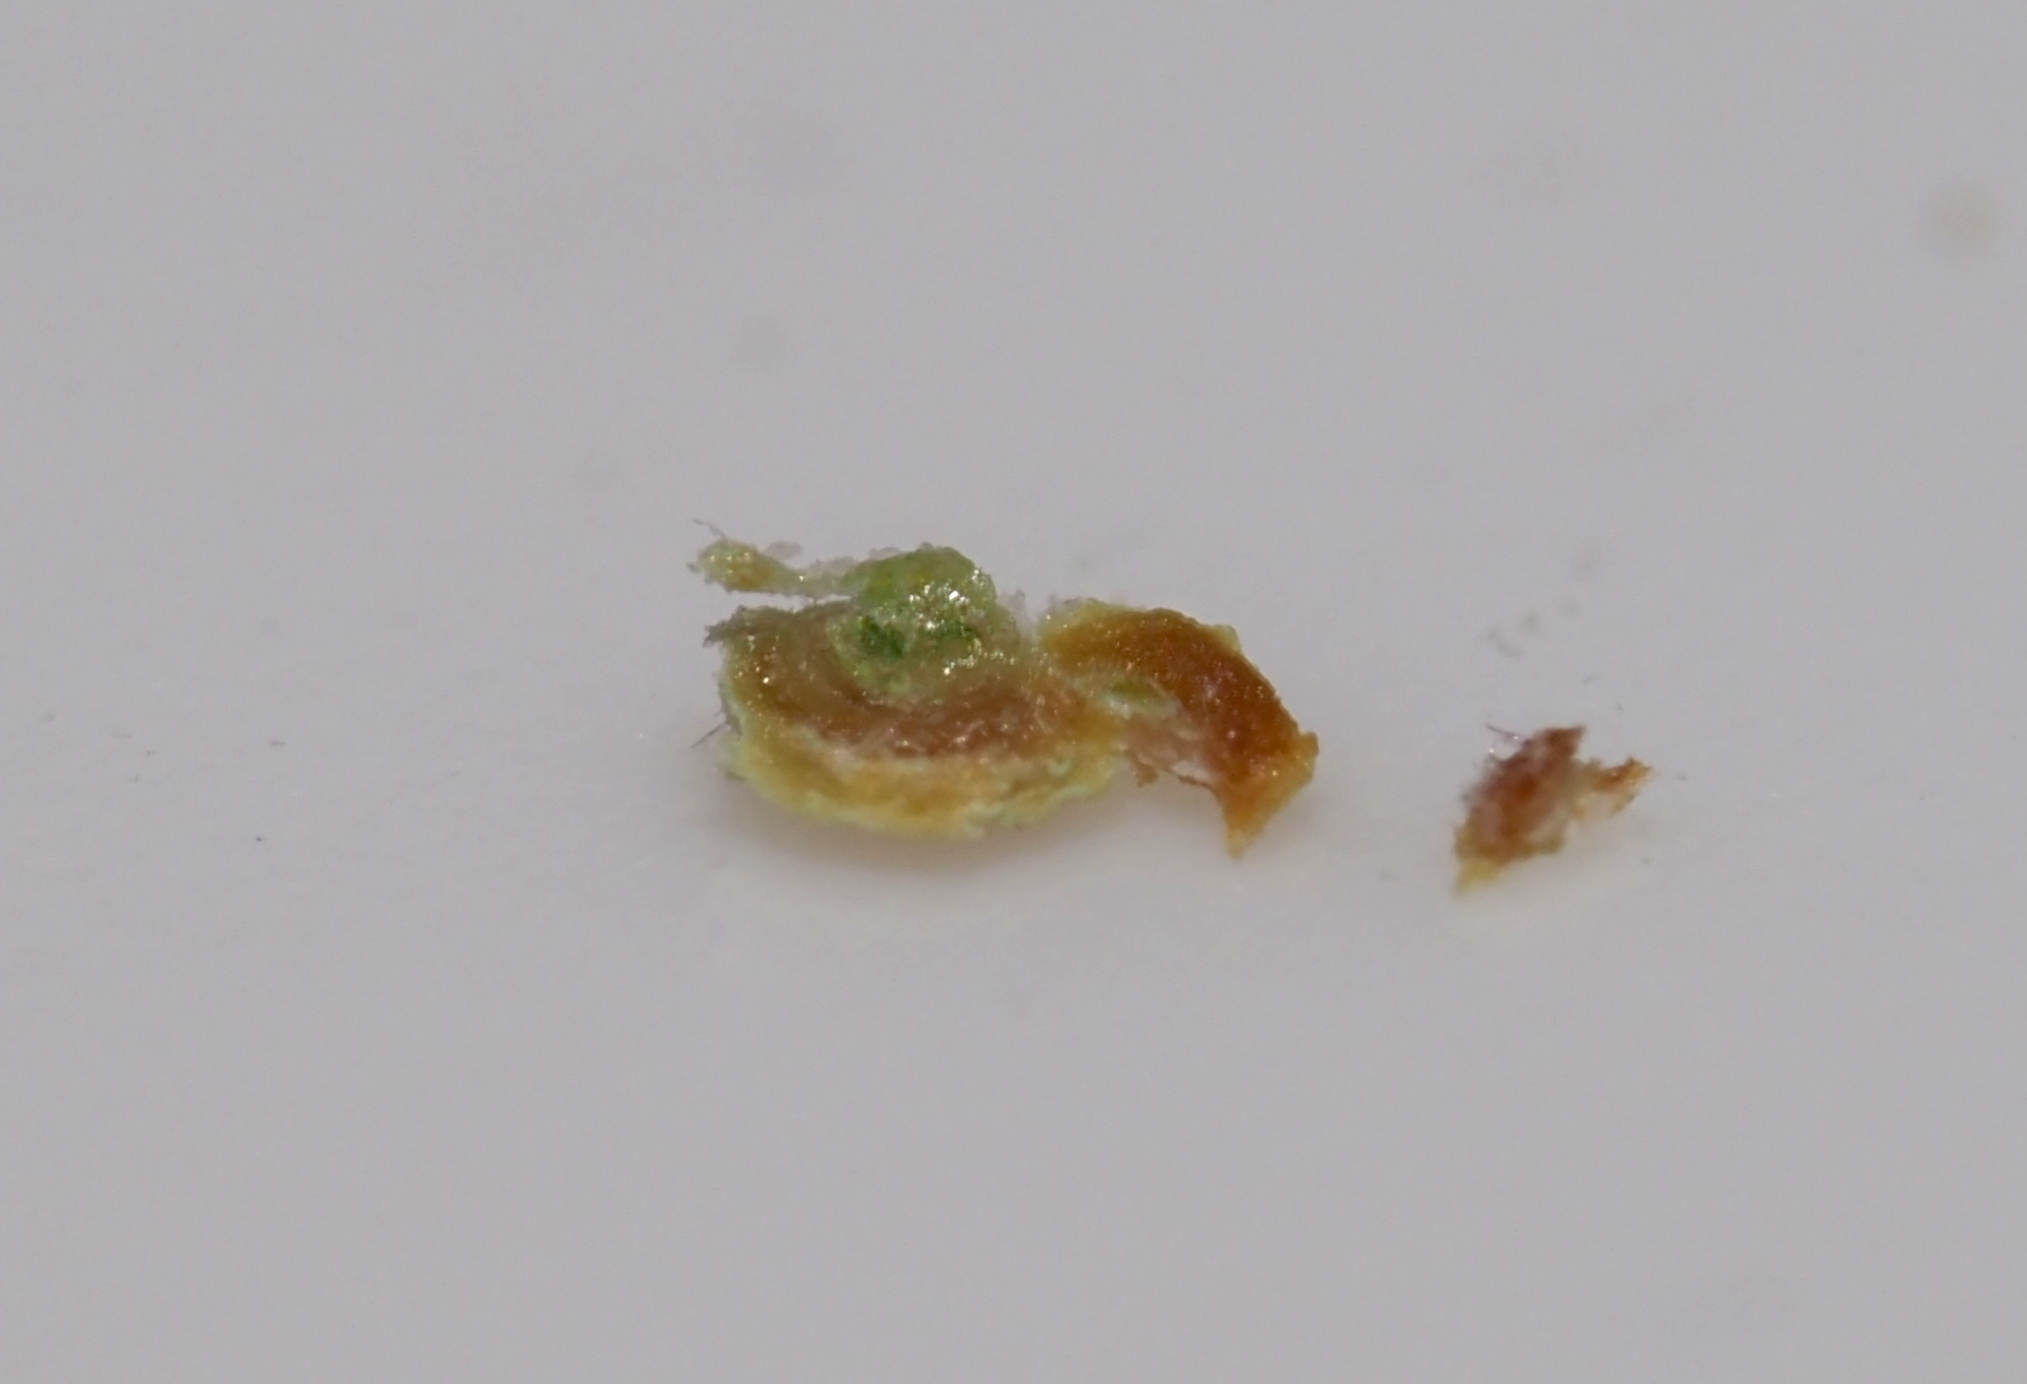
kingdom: Animalia
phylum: Arthropoda
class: Insecta
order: Hymenoptera
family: Cynipidae
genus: Neuroterus
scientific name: Neuroterus
